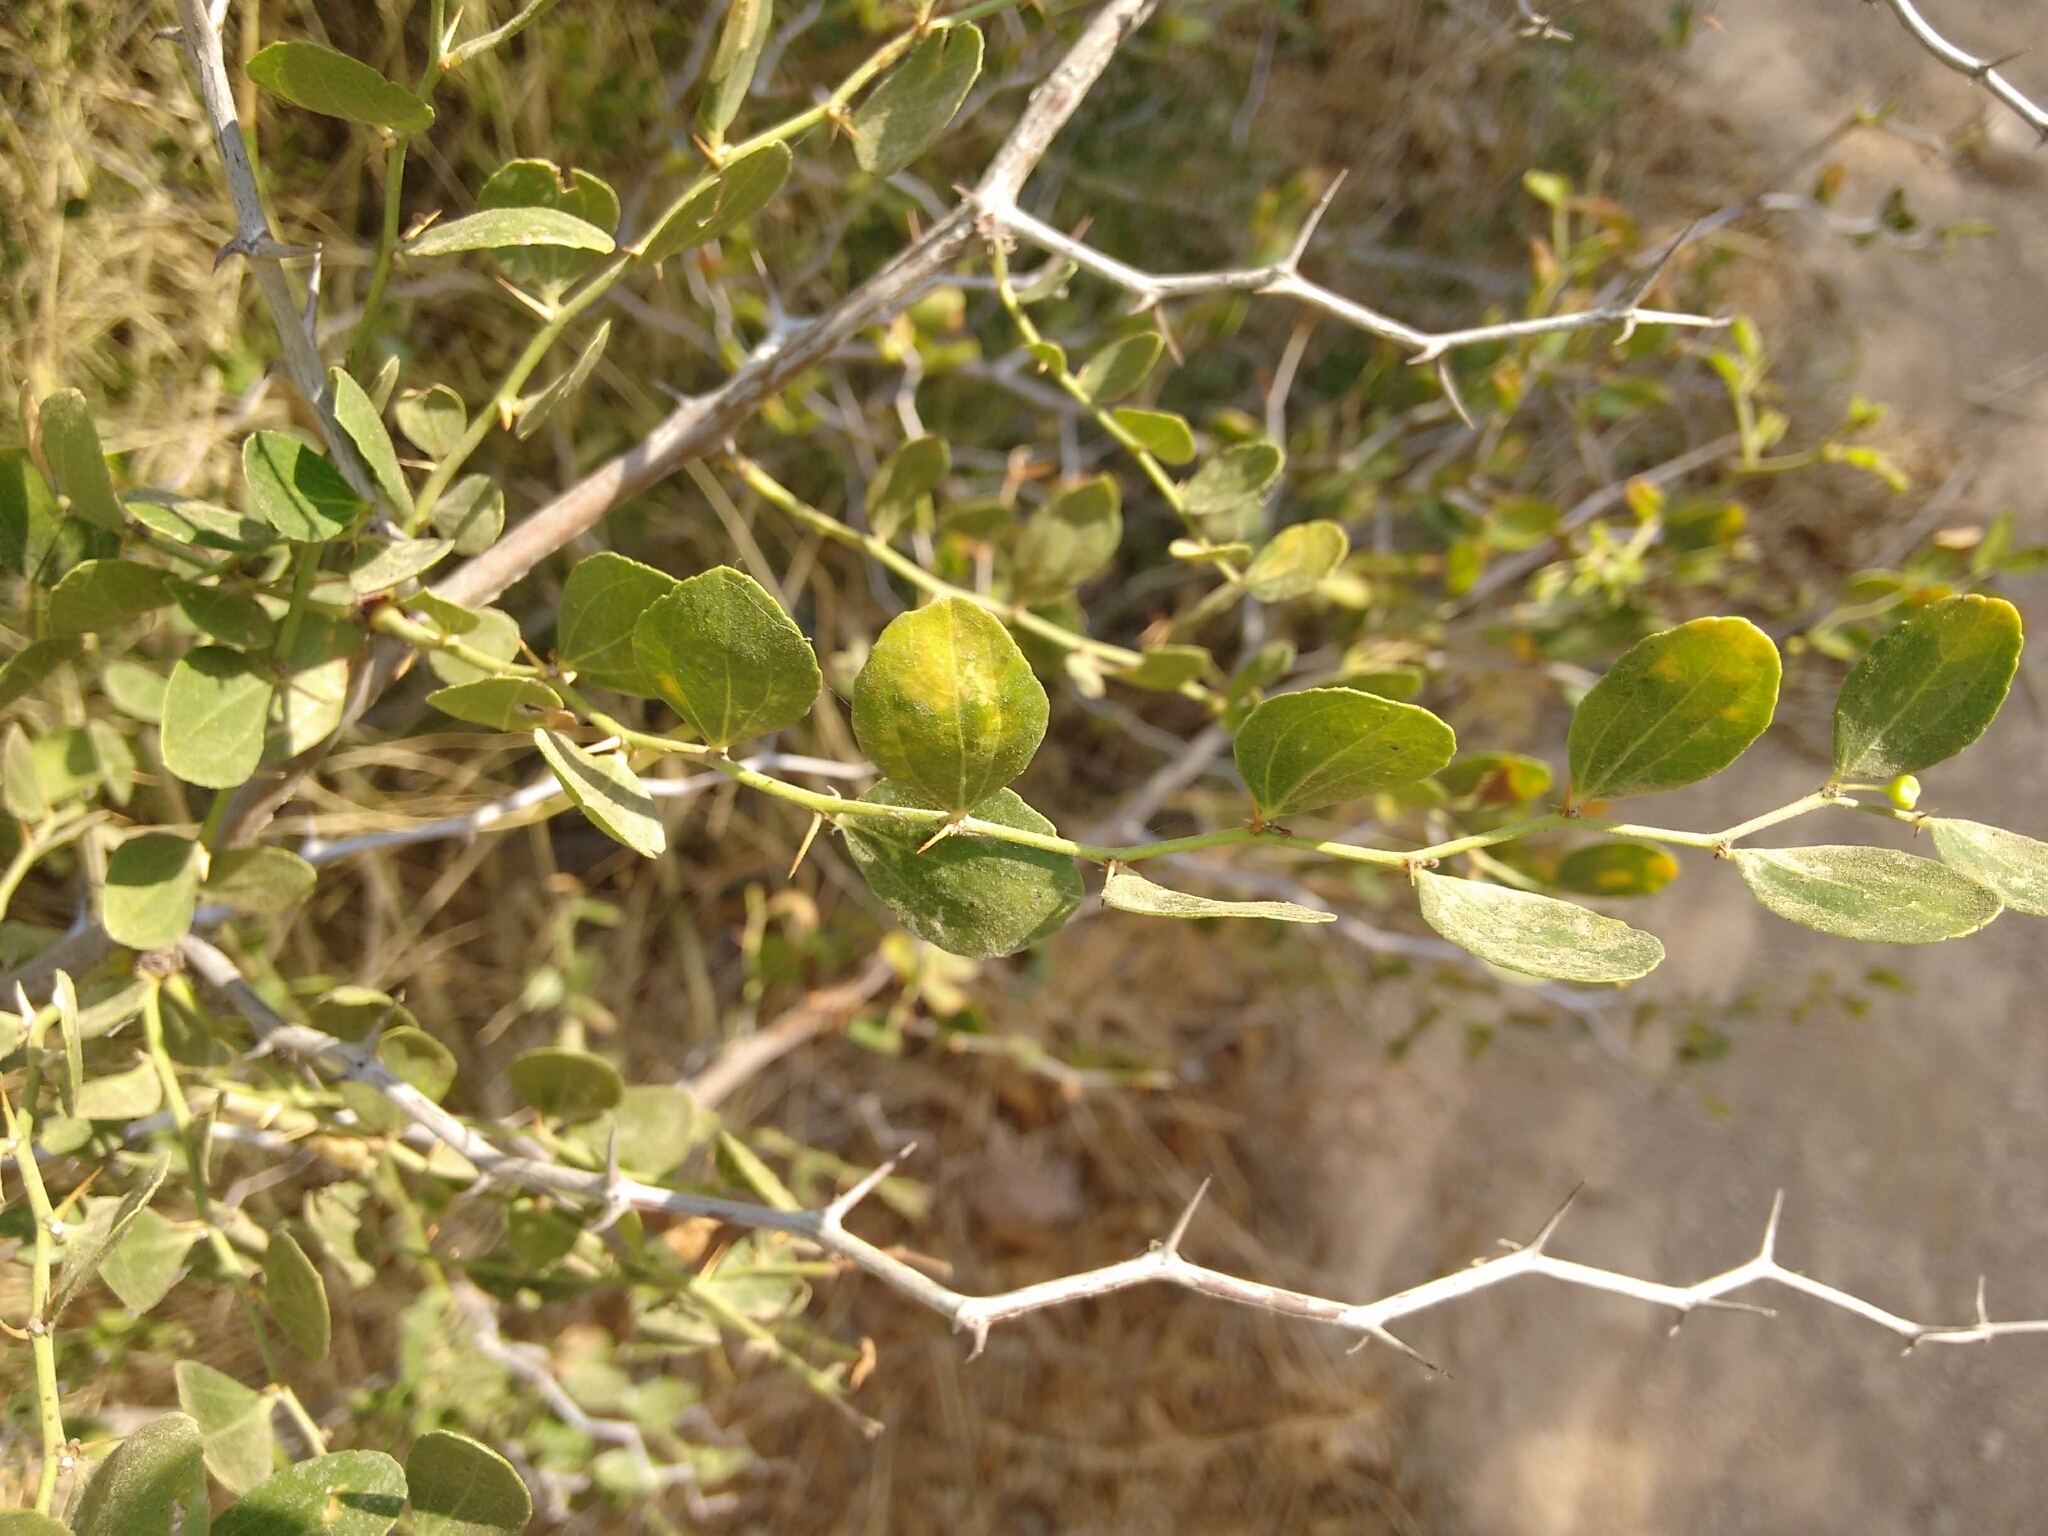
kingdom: Plantae
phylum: Tracheophyta
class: Magnoliopsida
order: Rosales
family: Rhamnaceae
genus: Ziziphus
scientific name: Ziziphus lotus
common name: Lotus
